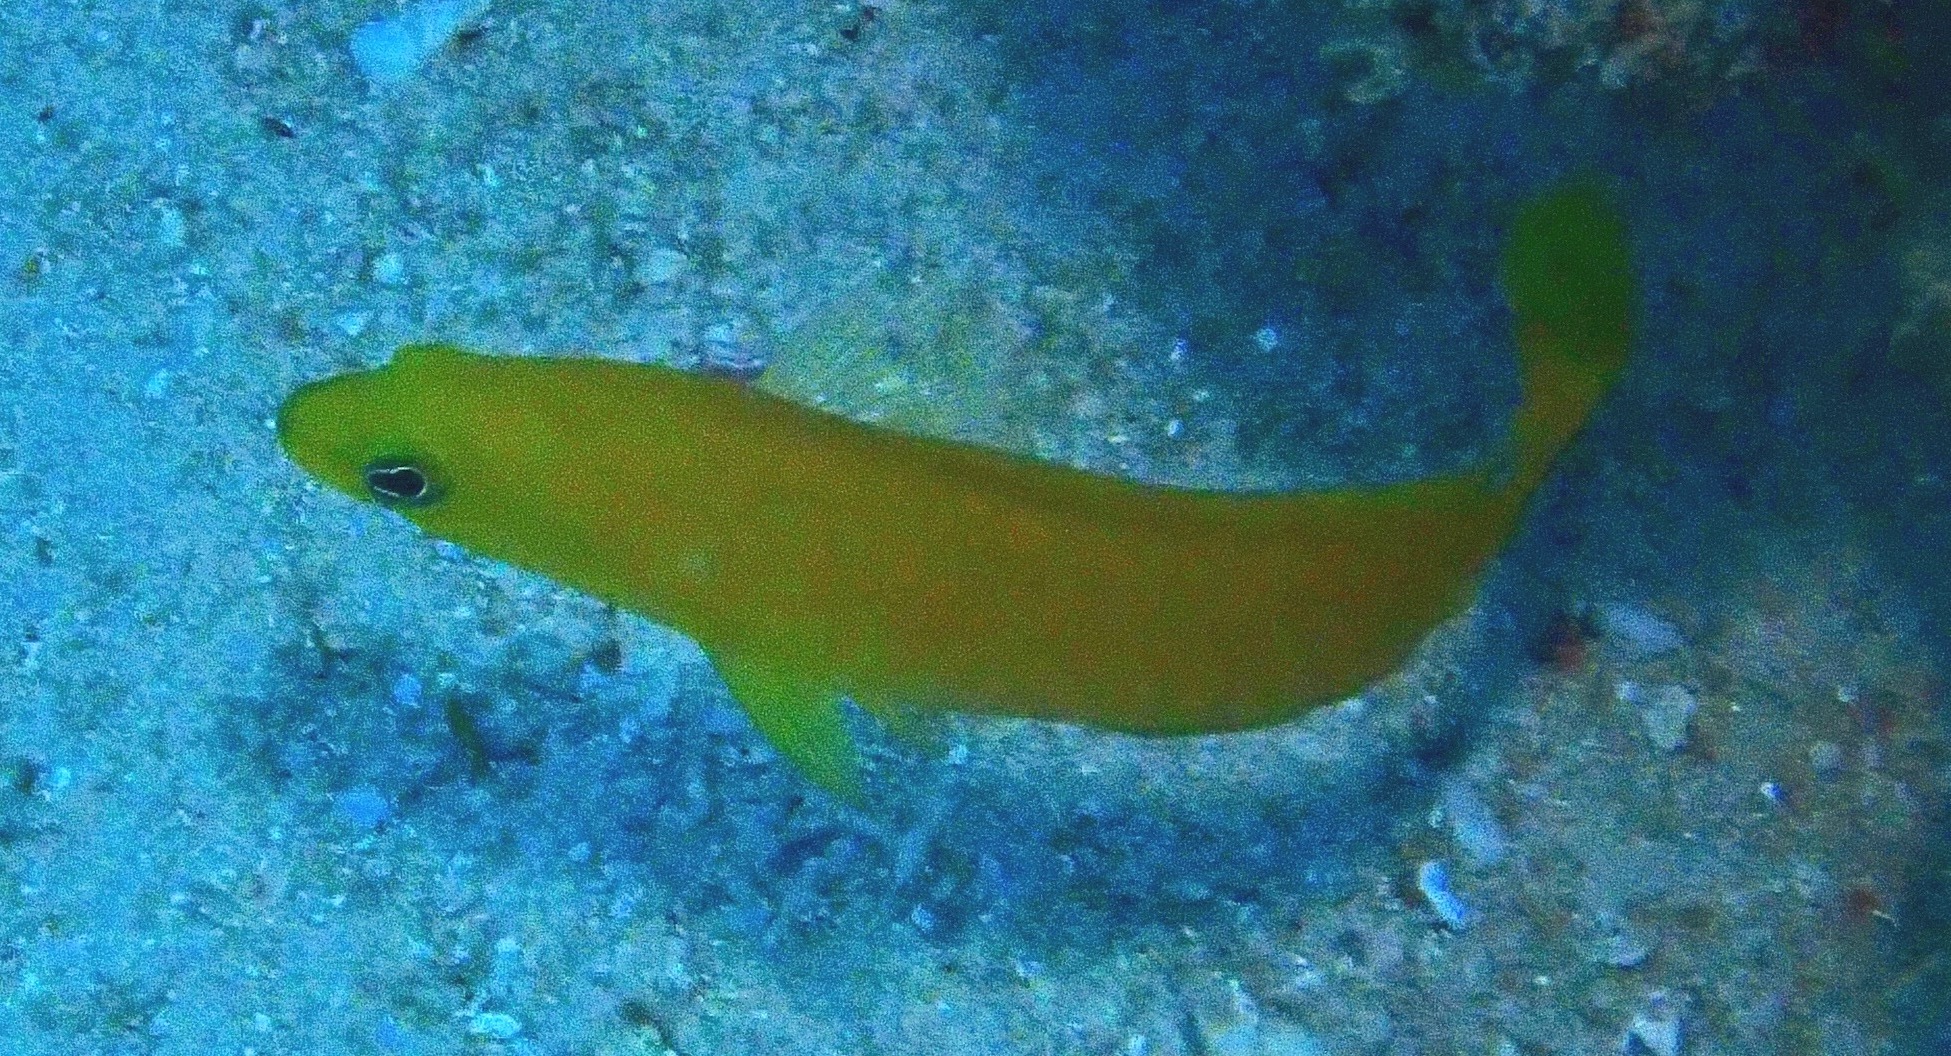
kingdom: Animalia
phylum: Chordata
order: Perciformes
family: Pseudochromidae
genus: Pseudochromis
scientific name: Pseudochromis fuscus
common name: Brown dottyback
